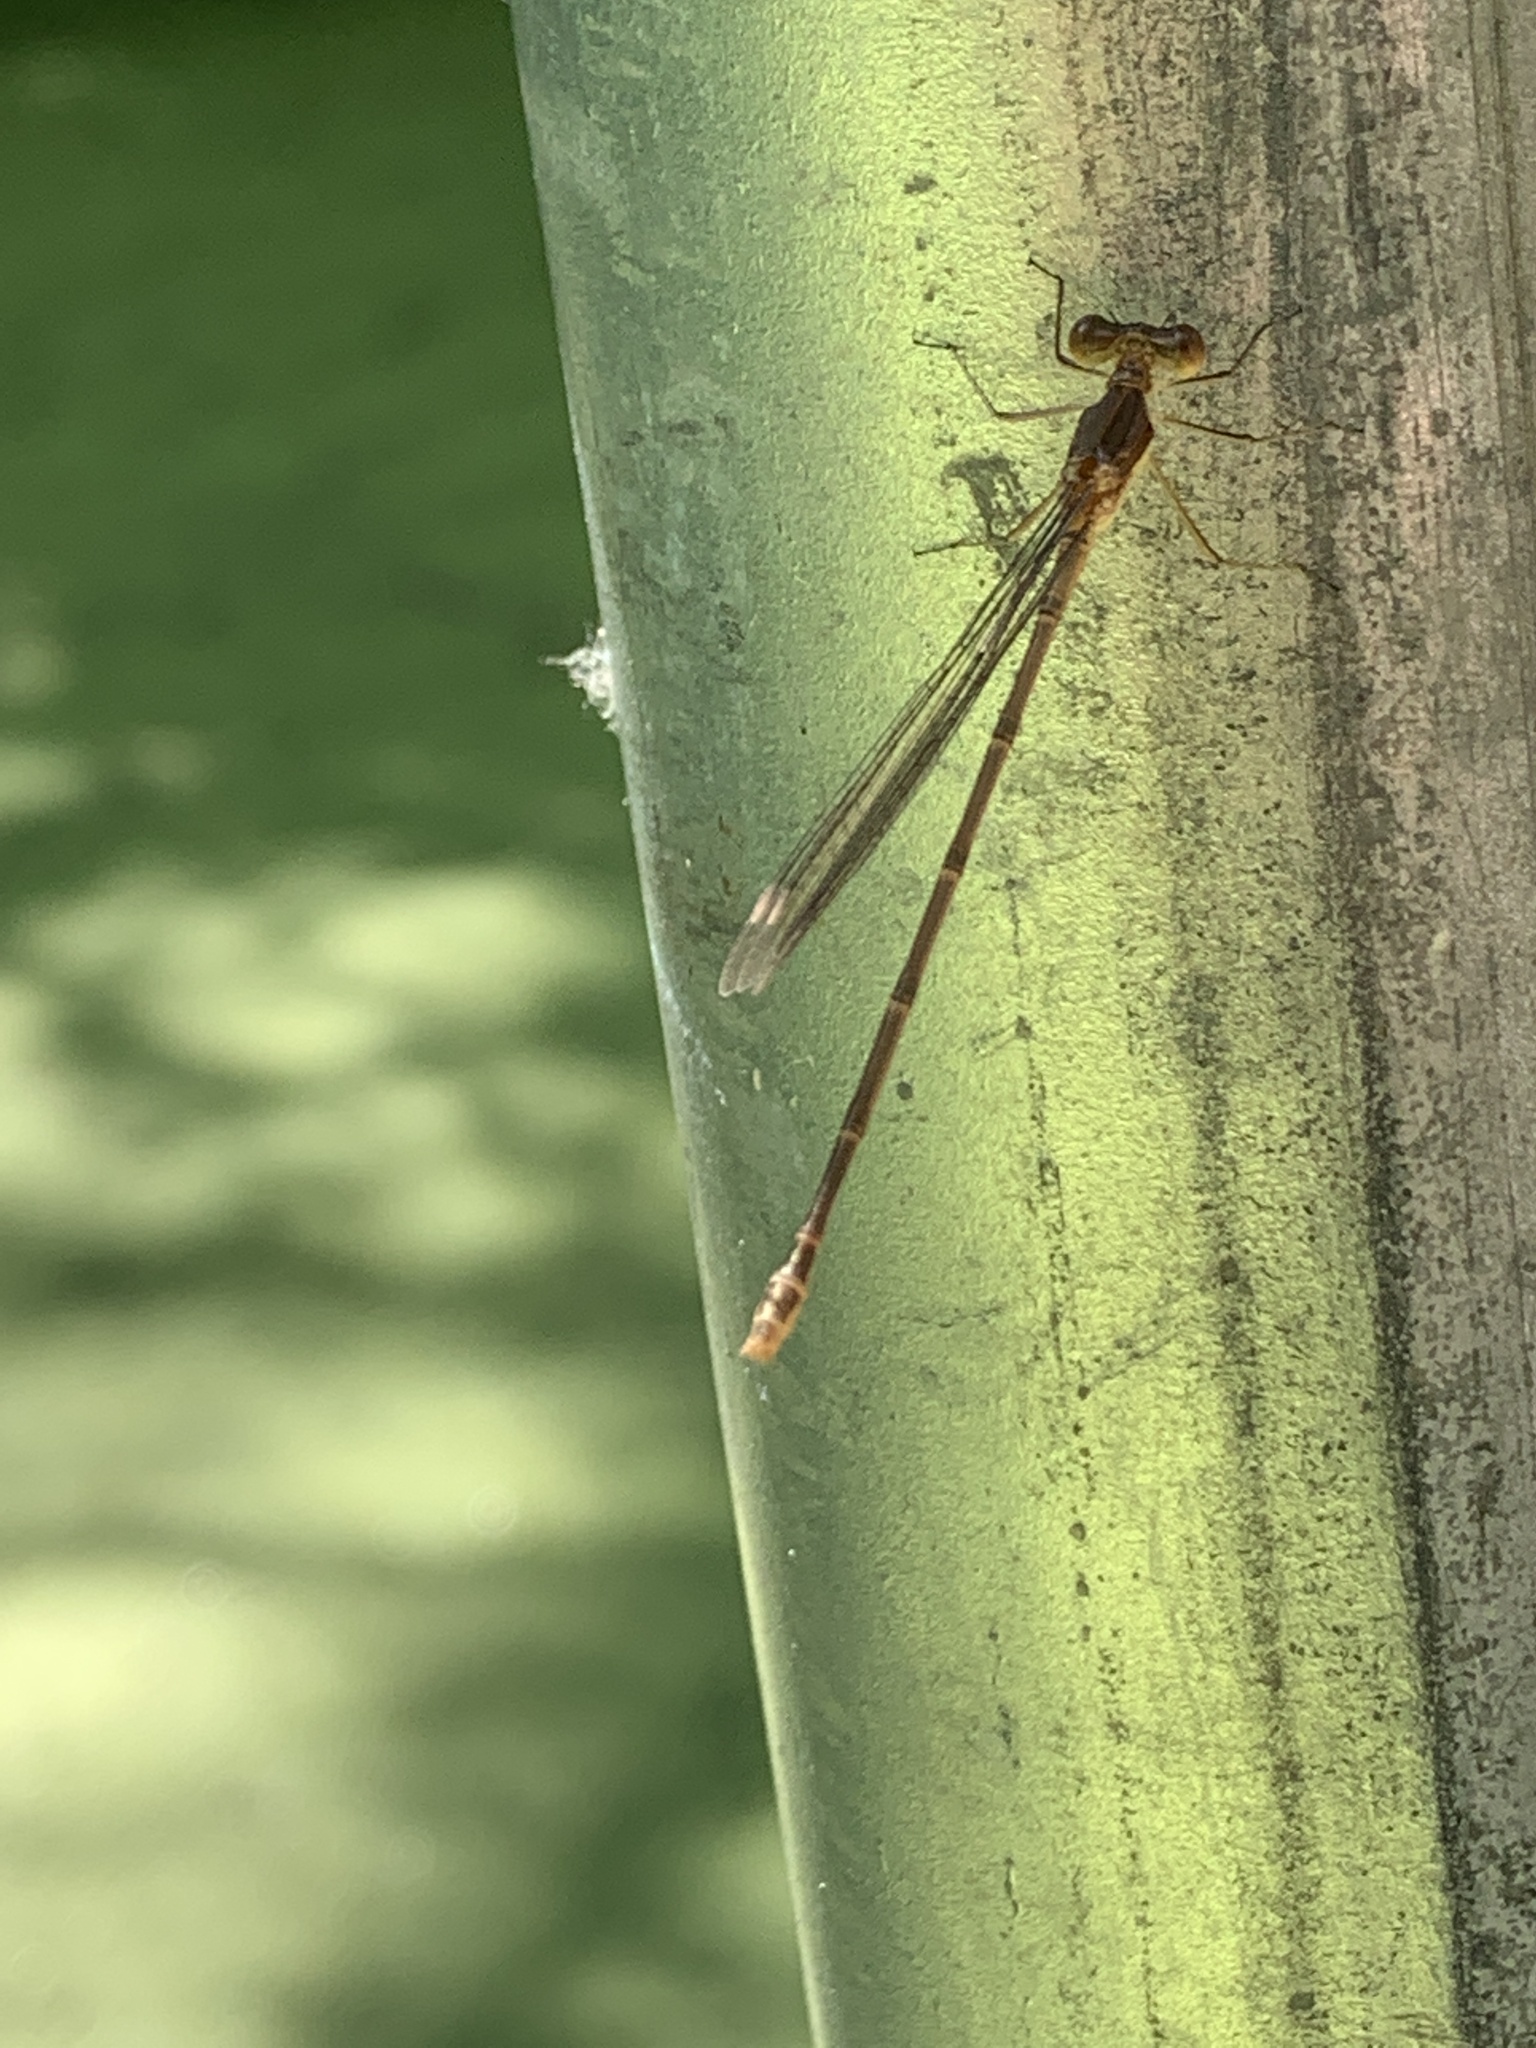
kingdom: Animalia
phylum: Arthropoda
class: Insecta
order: Odonata
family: Lestidae
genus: Lestes
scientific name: Lestes rectangularis
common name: Slender spreadwing
